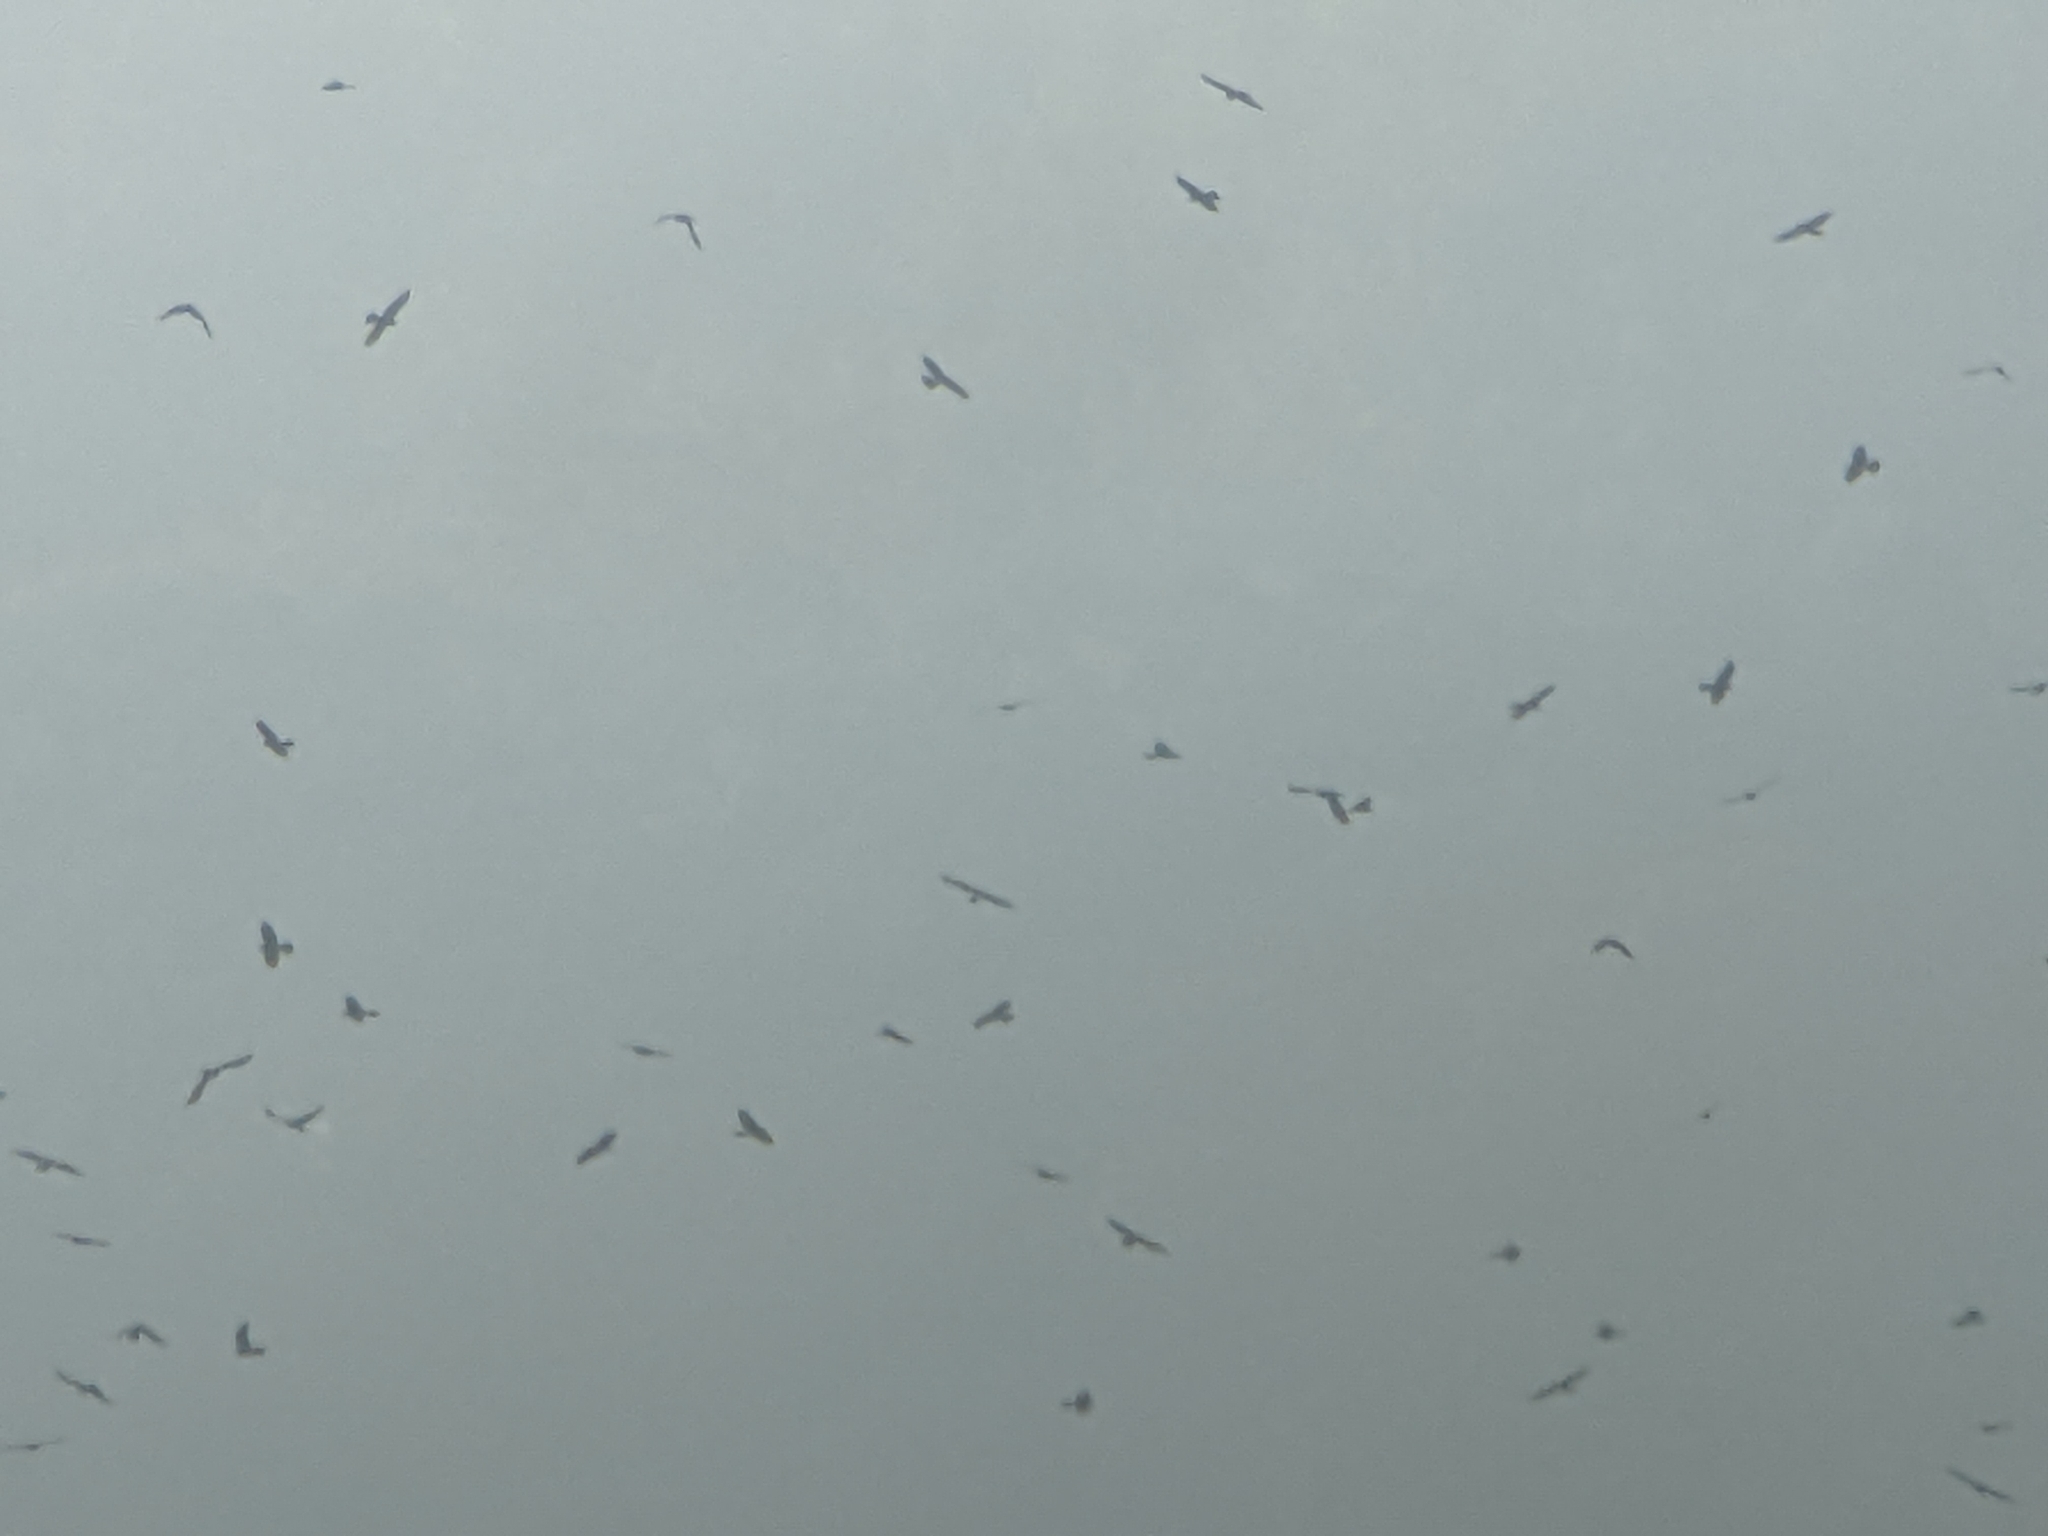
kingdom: Animalia
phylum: Chordata
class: Aves
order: Accipitriformes
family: Accipitridae
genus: Butastur
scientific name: Butastur indicus
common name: Grey-faced buzzard
